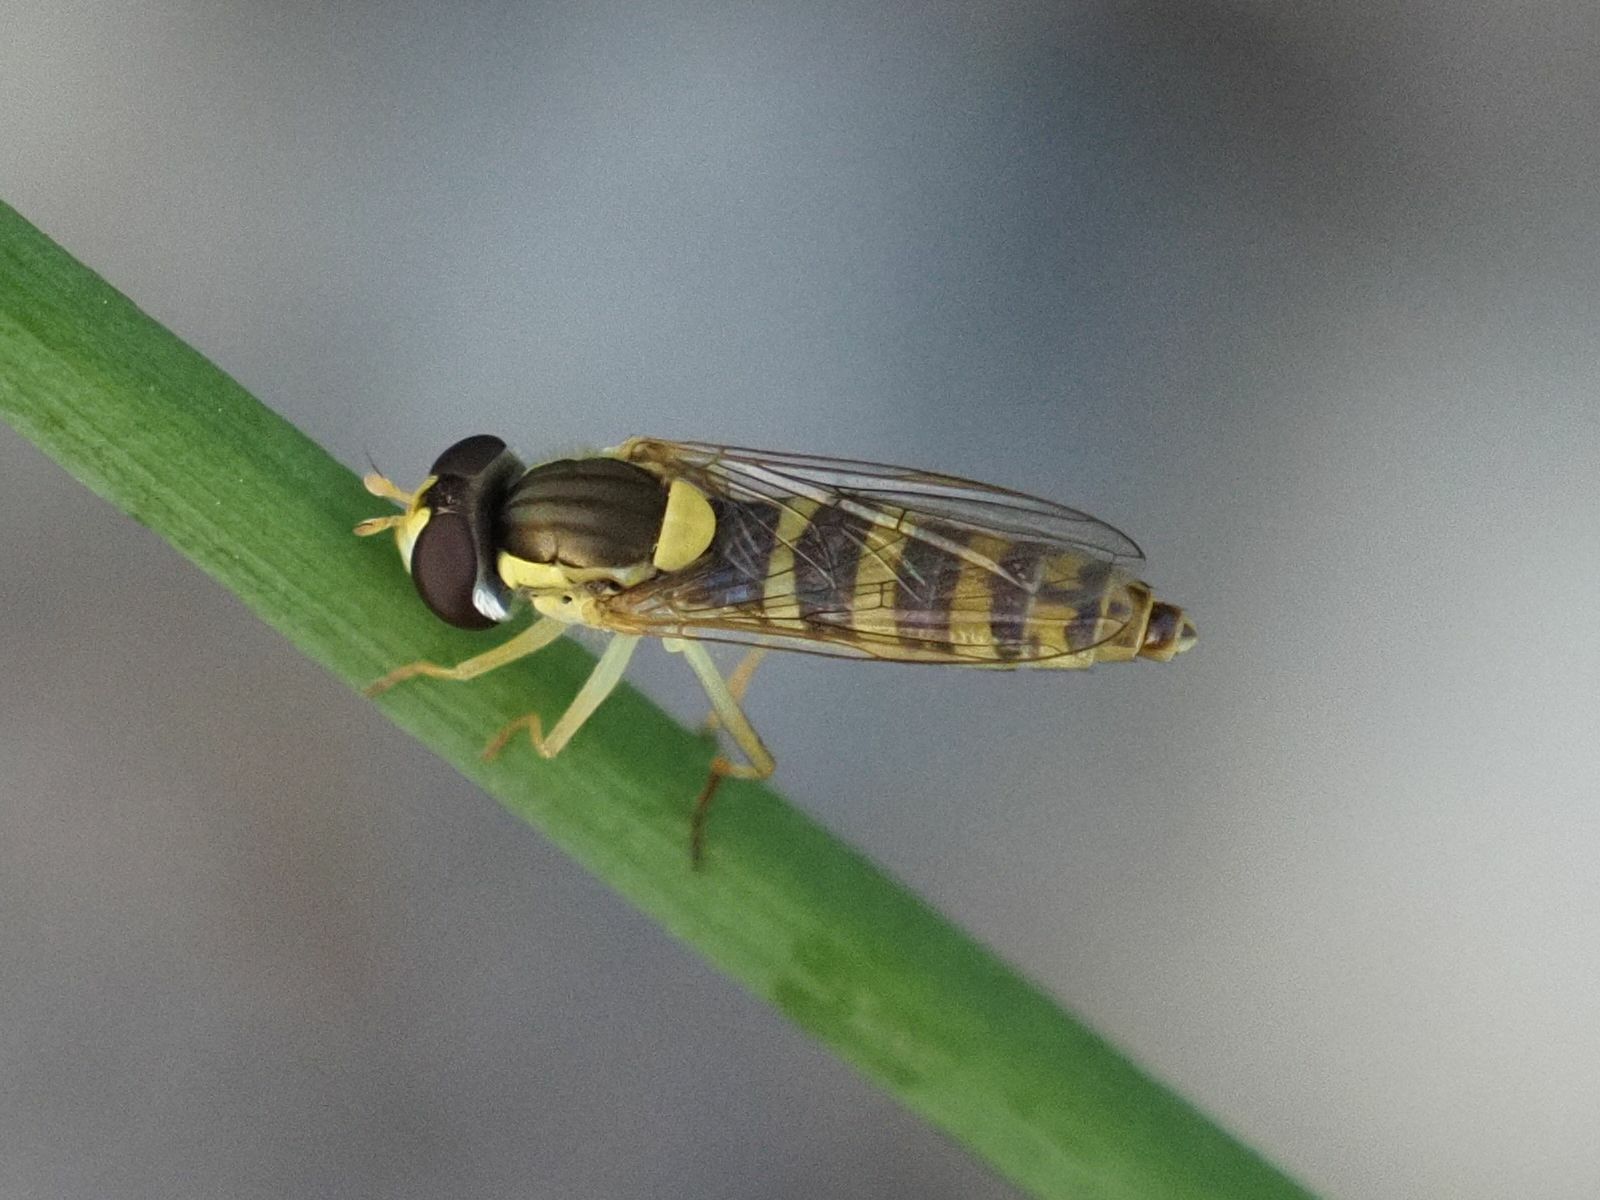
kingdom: Animalia
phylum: Arthropoda
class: Insecta
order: Diptera
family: Syrphidae
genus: Sphaerophoria
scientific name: Sphaerophoria
